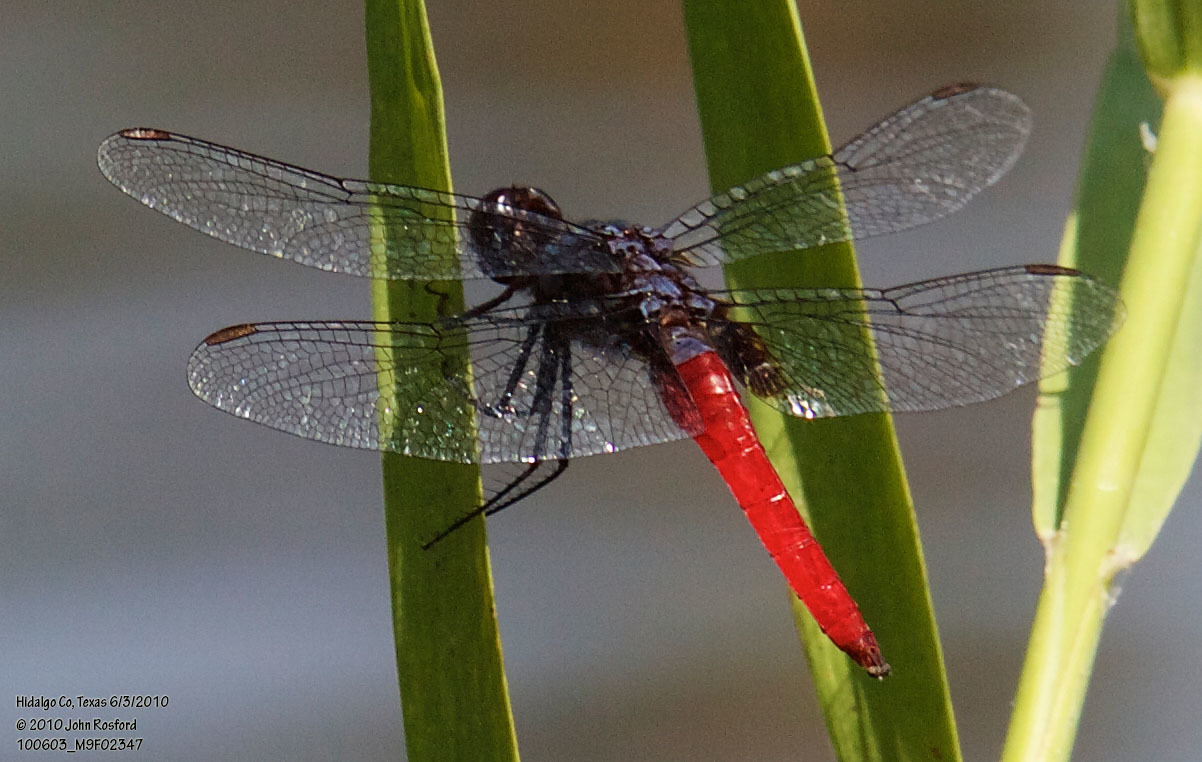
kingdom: Animalia
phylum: Arthropoda
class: Insecta
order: Odonata
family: Libellulidae
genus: Planiplax
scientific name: Planiplax sanguiniventris
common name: Mexican scarlet-tail
